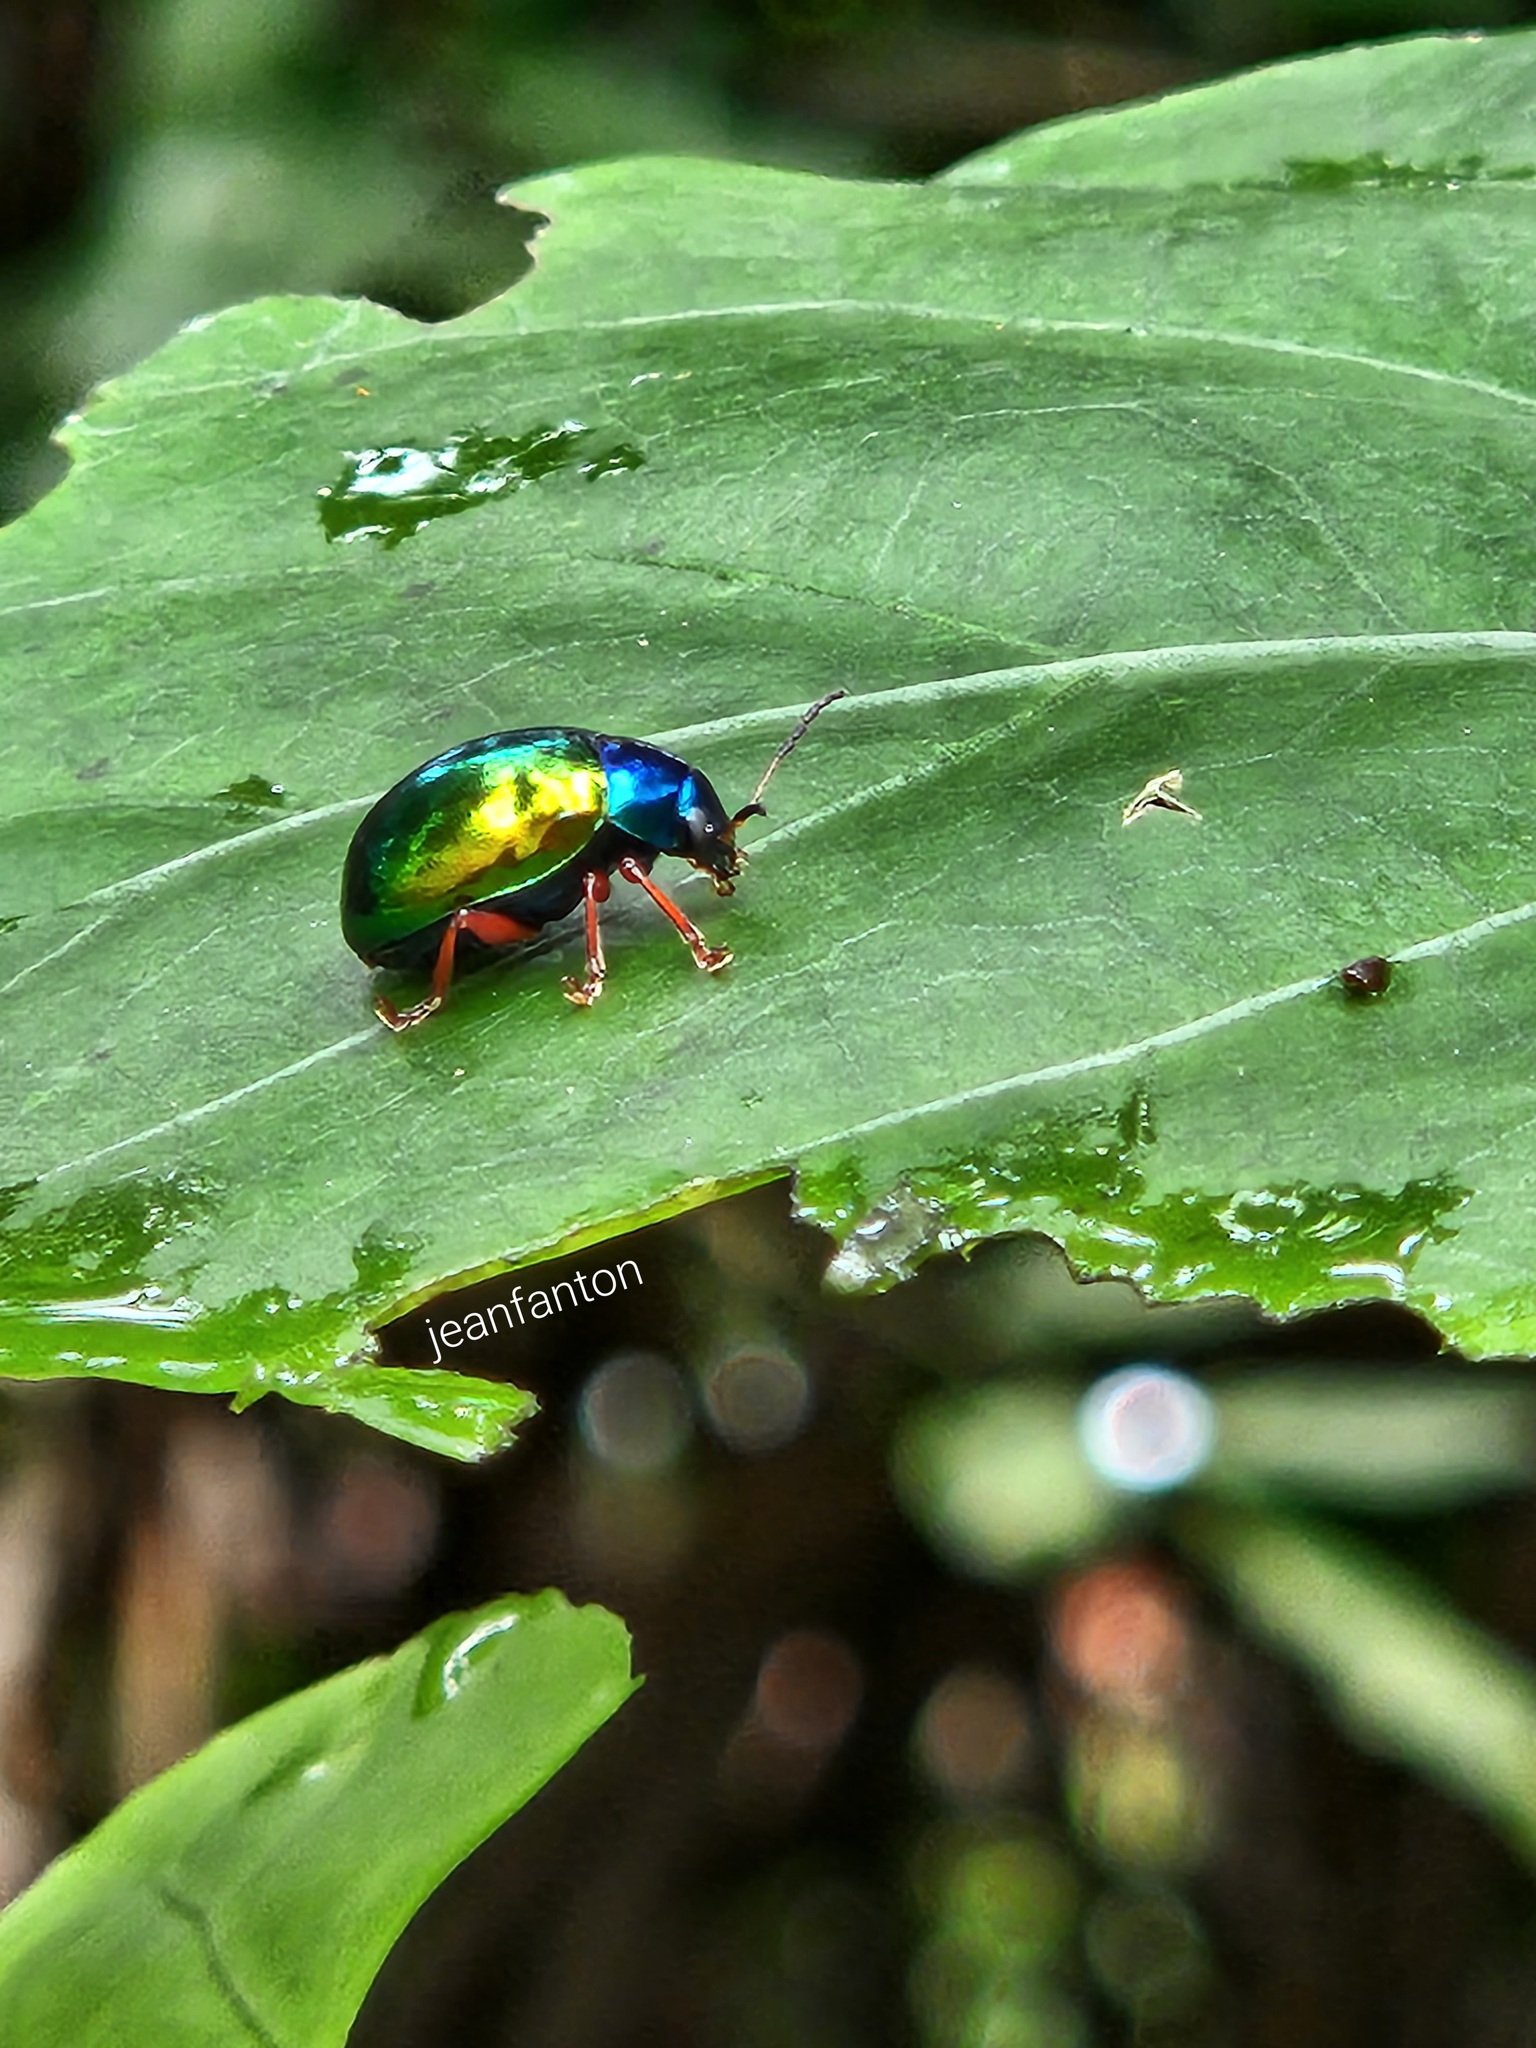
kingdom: Animalia
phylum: Arthropoda
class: Insecta
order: Coleoptera
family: Chrysomelidae
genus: Iphimeis
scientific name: Iphimeis
